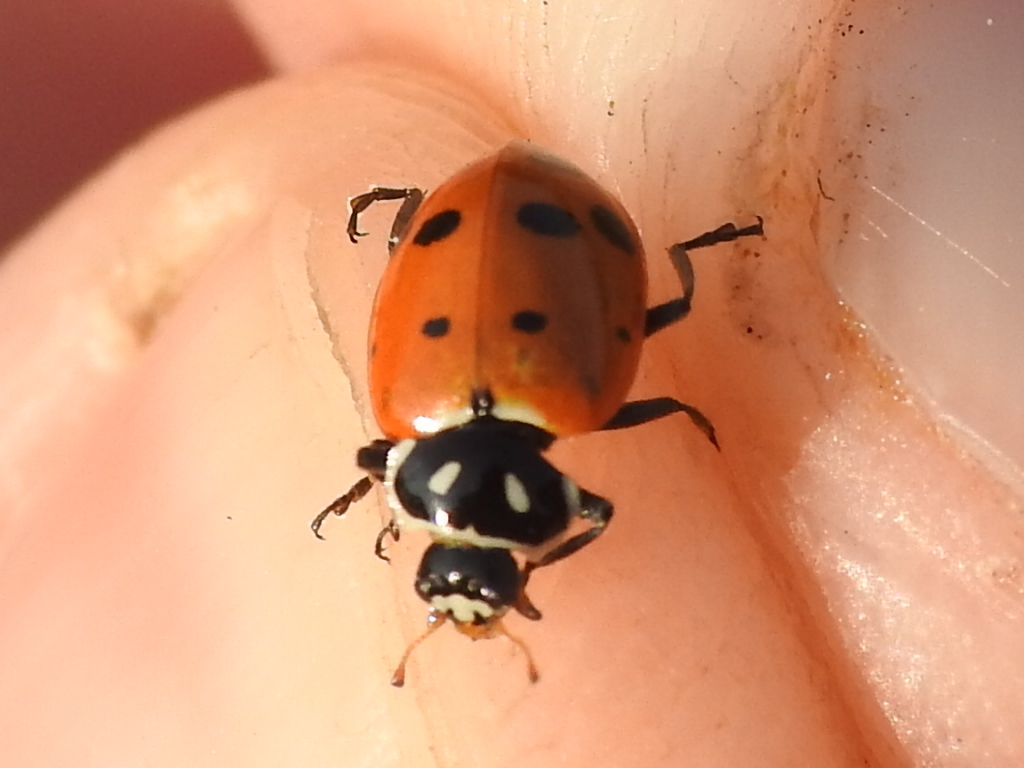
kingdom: Animalia
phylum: Arthropoda
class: Insecta
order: Coleoptera
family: Coccinellidae
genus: Hippodamia
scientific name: Hippodamia convergens
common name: Convergent lady beetle
